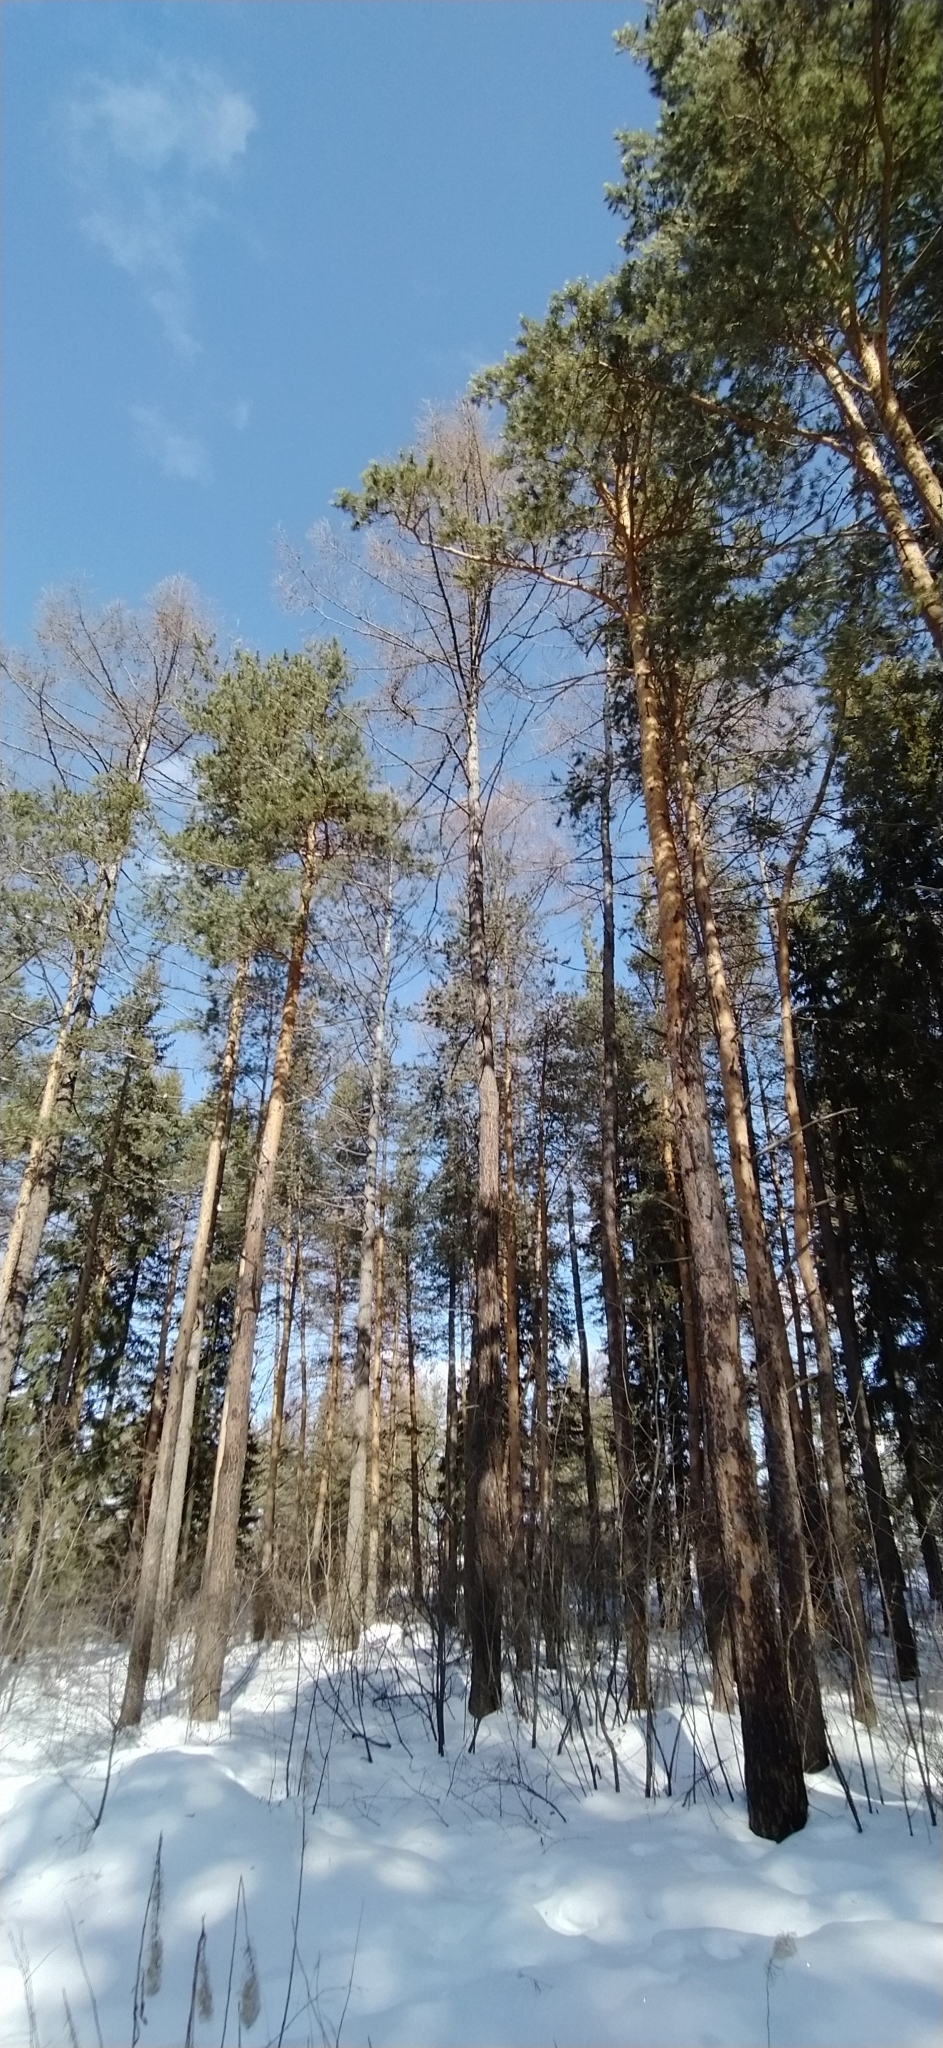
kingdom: Plantae
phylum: Tracheophyta
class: Pinopsida
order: Pinales
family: Pinaceae
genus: Pinus
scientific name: Pinus sylvestris
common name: Scots pine
